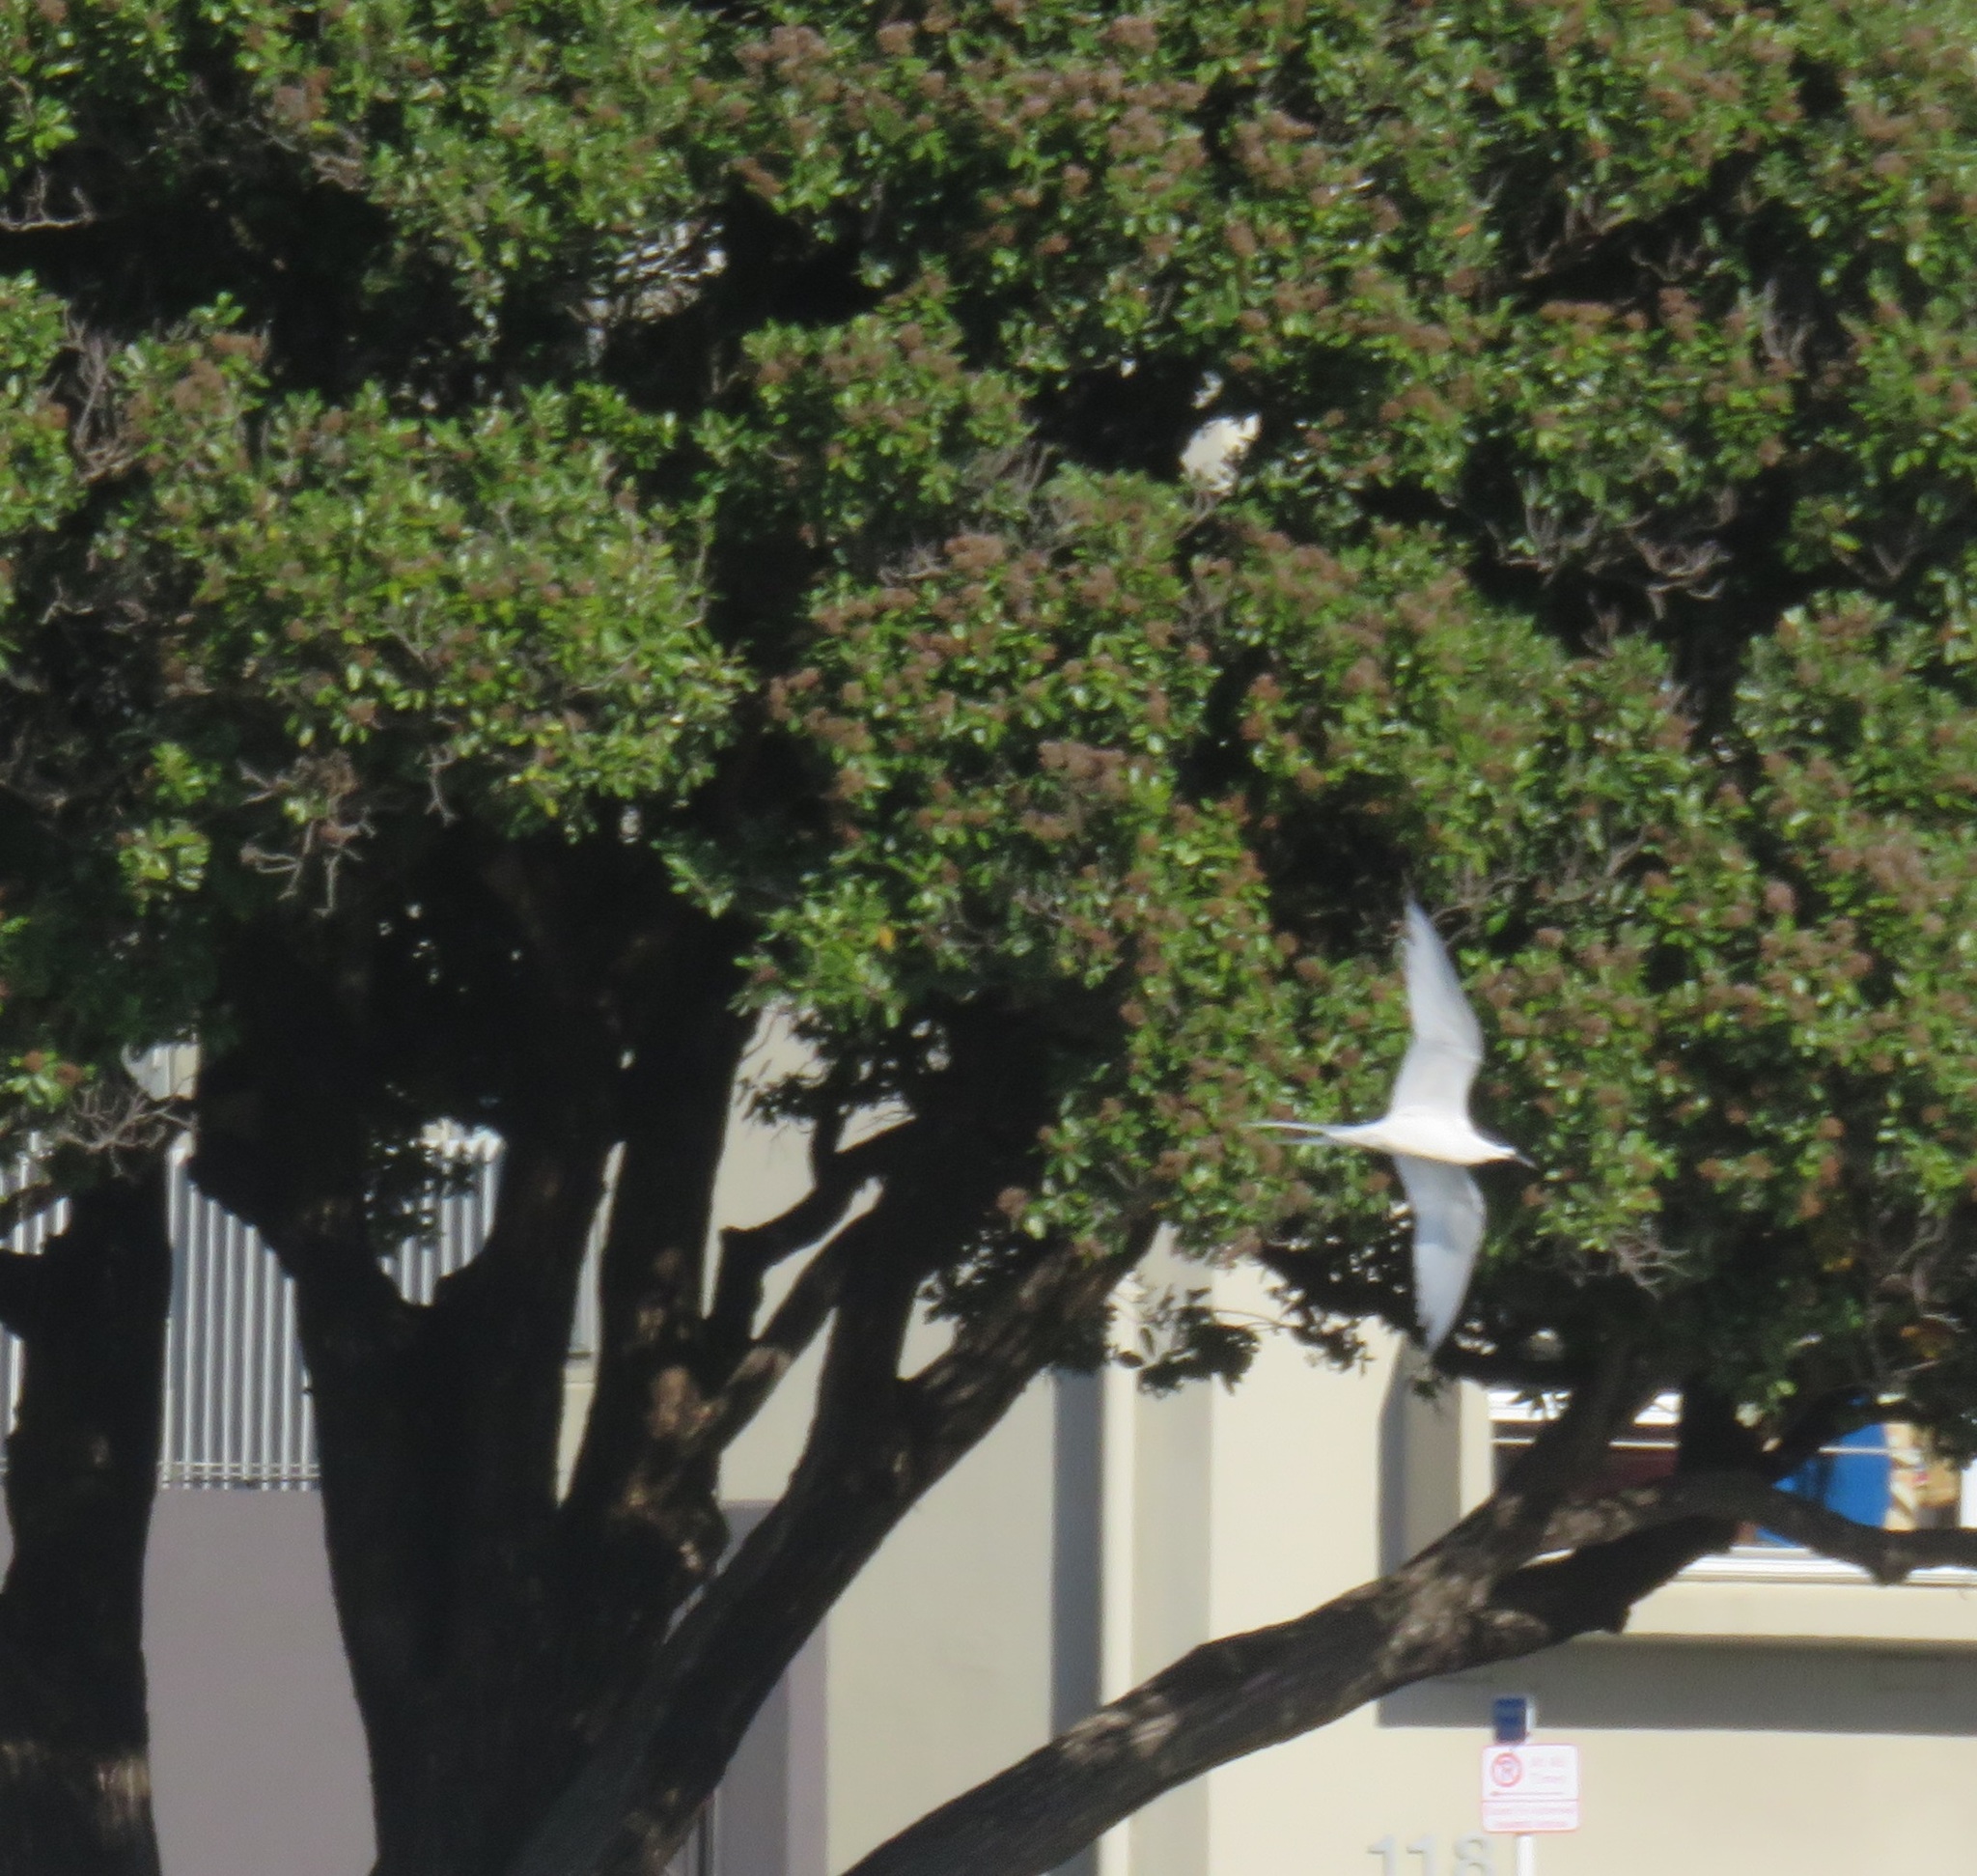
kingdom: Animalia
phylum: Chordata
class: Aves
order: Charadriiformes
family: Laridae
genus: Sterna
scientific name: Sterna striata
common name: White-fronted tern
